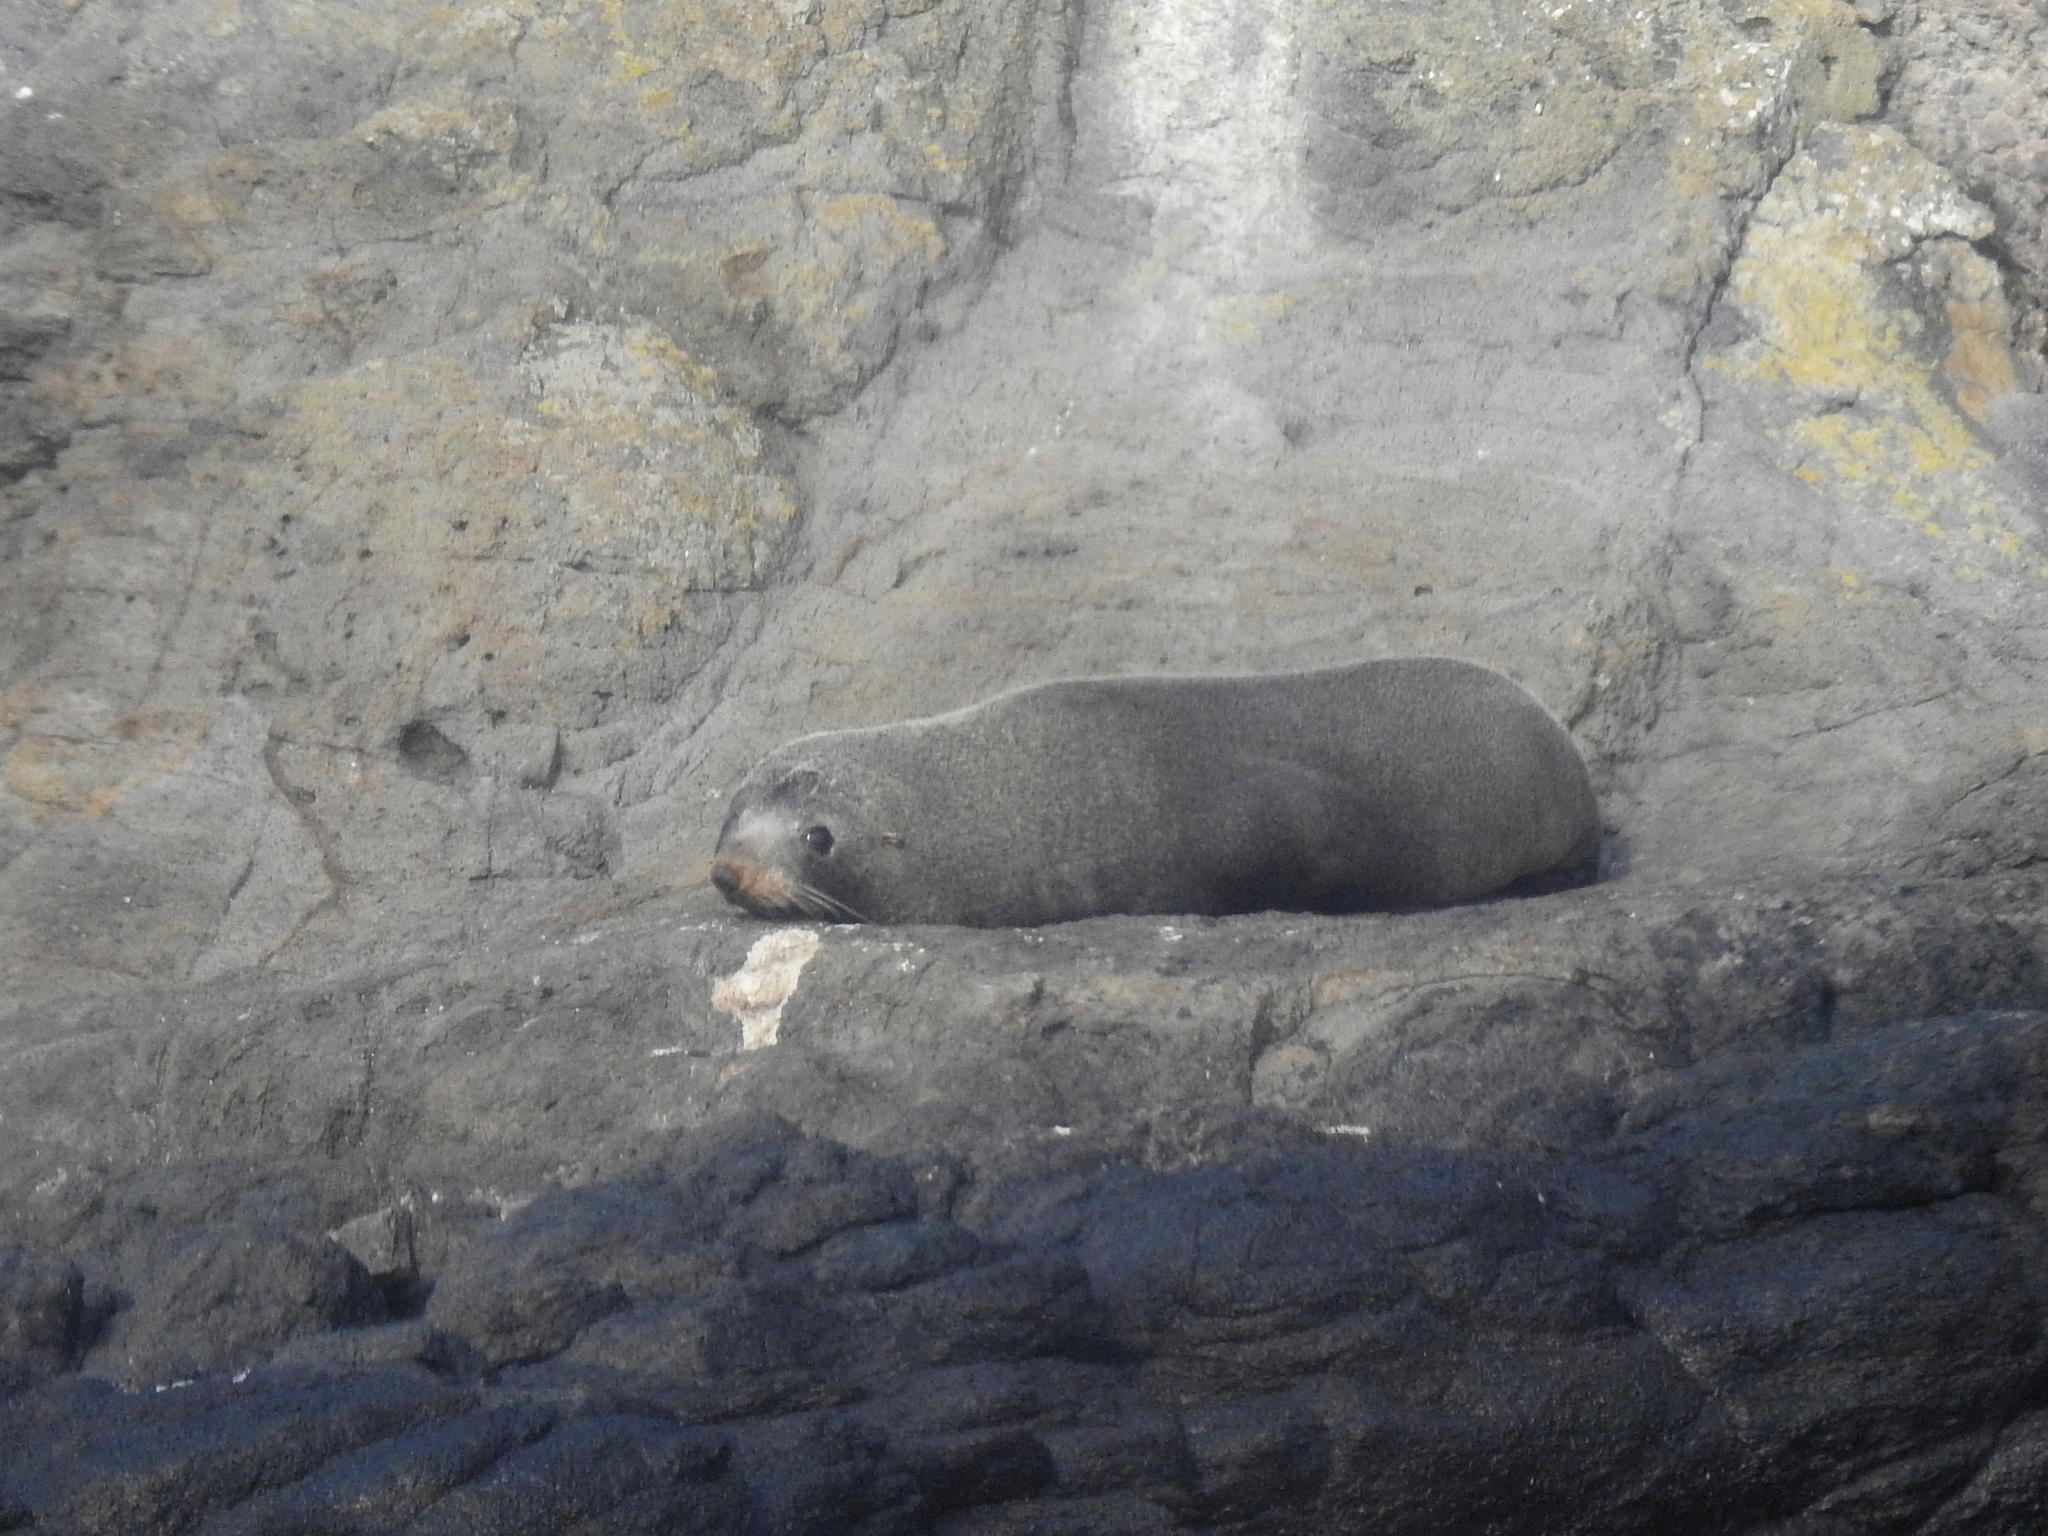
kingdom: Animalia
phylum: Chordata
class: Mammalia
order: Carnivora
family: Otariidae
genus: Arctocephalus
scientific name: Arctocephalus forsteri
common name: New zealand fur seal
